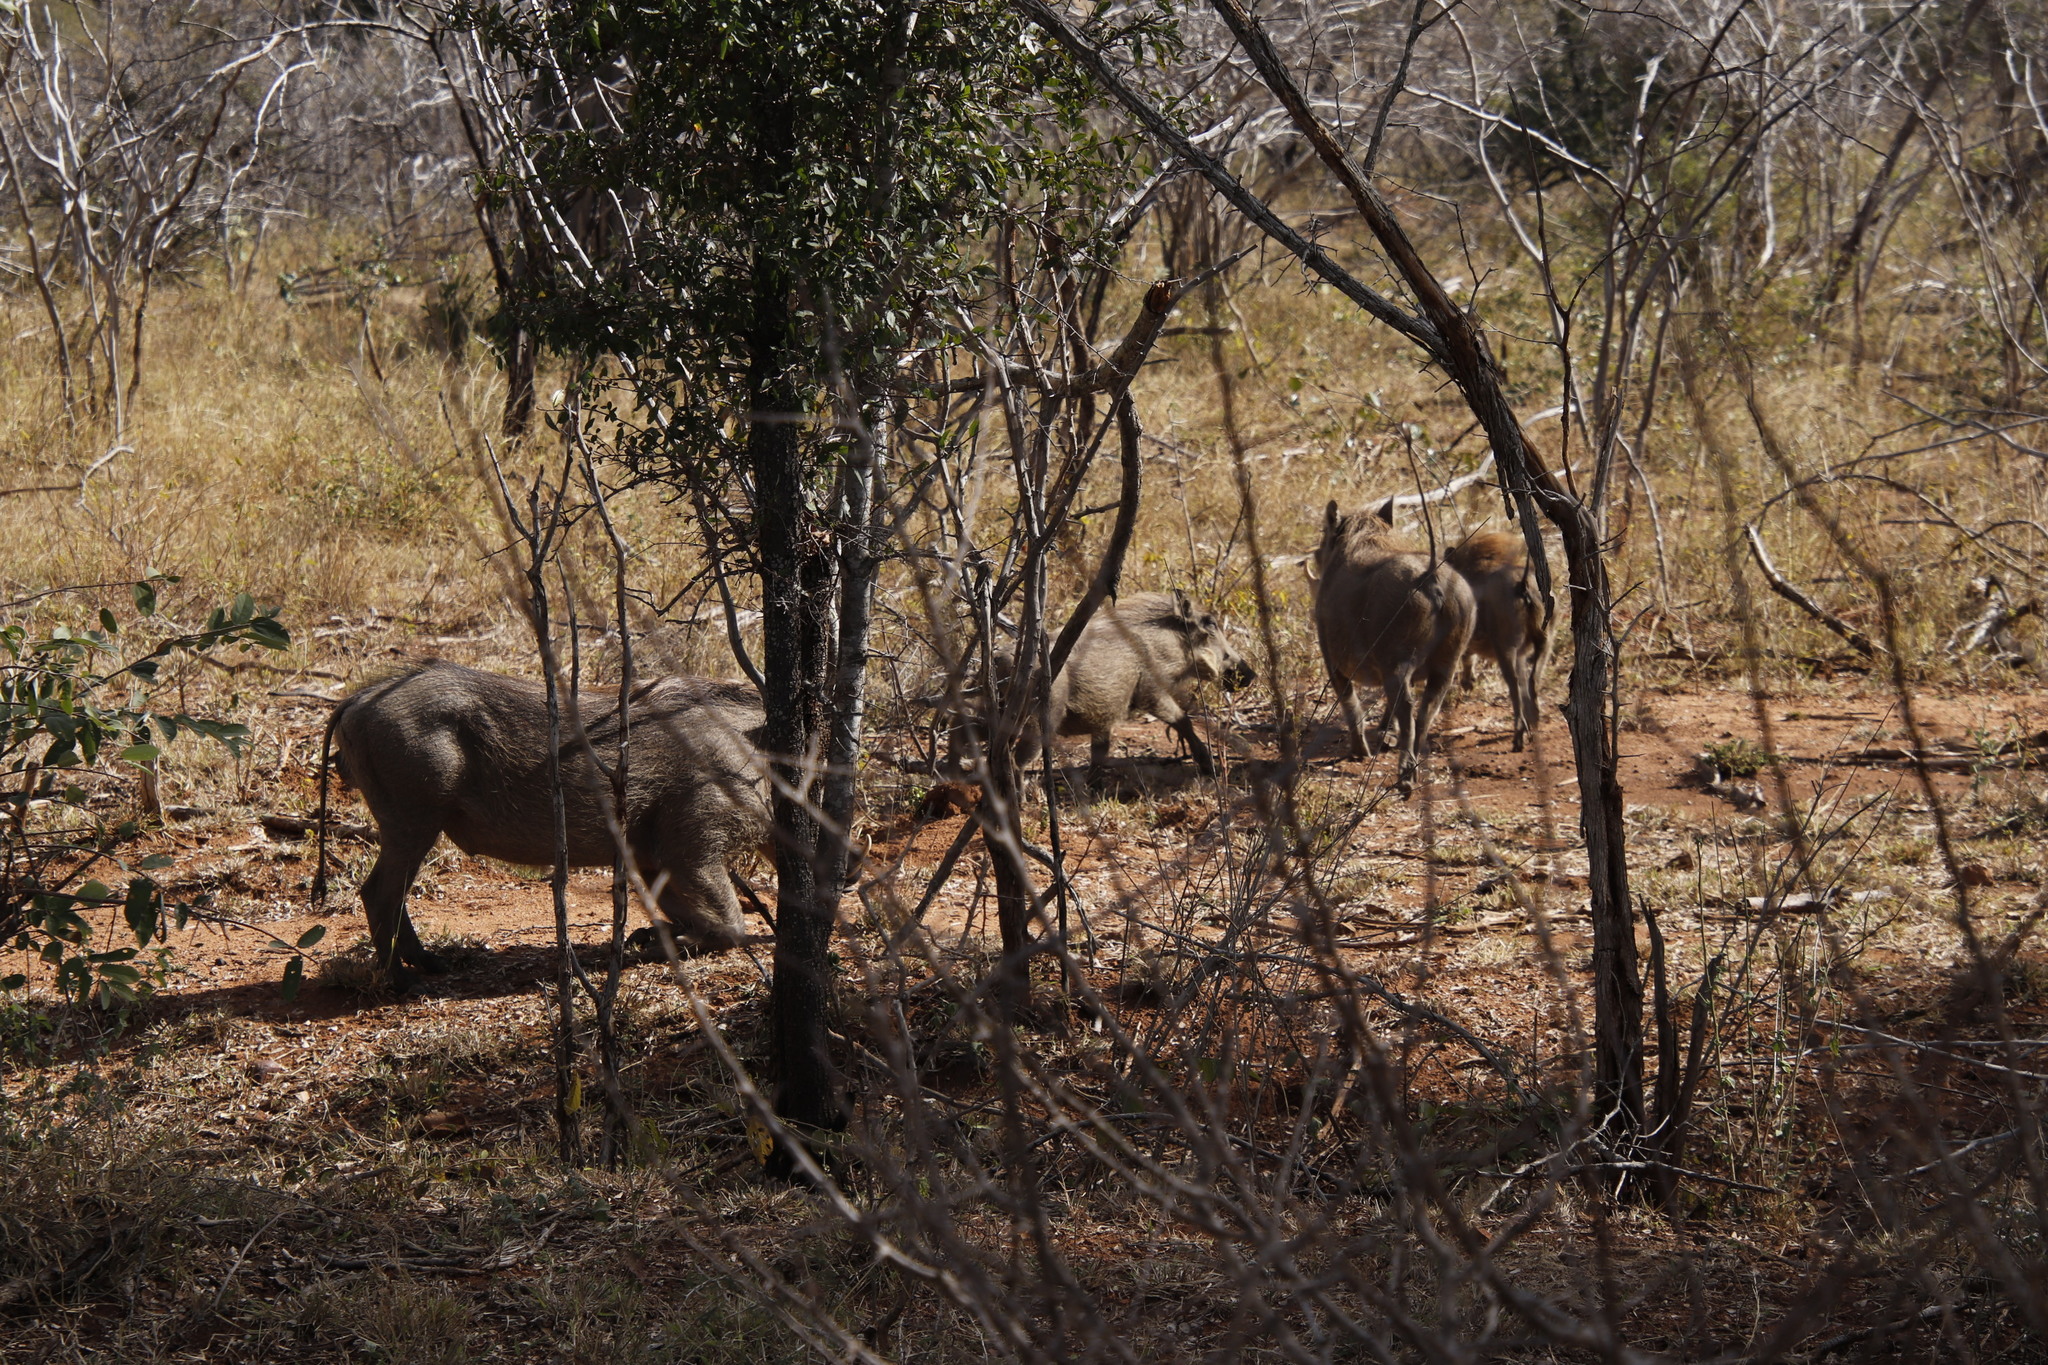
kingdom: Animalia
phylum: Chordata
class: Mammalia
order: Artiodactyla
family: Suidae
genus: Phacochoerus
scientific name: Phacochoerus africanus
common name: Common warthog
